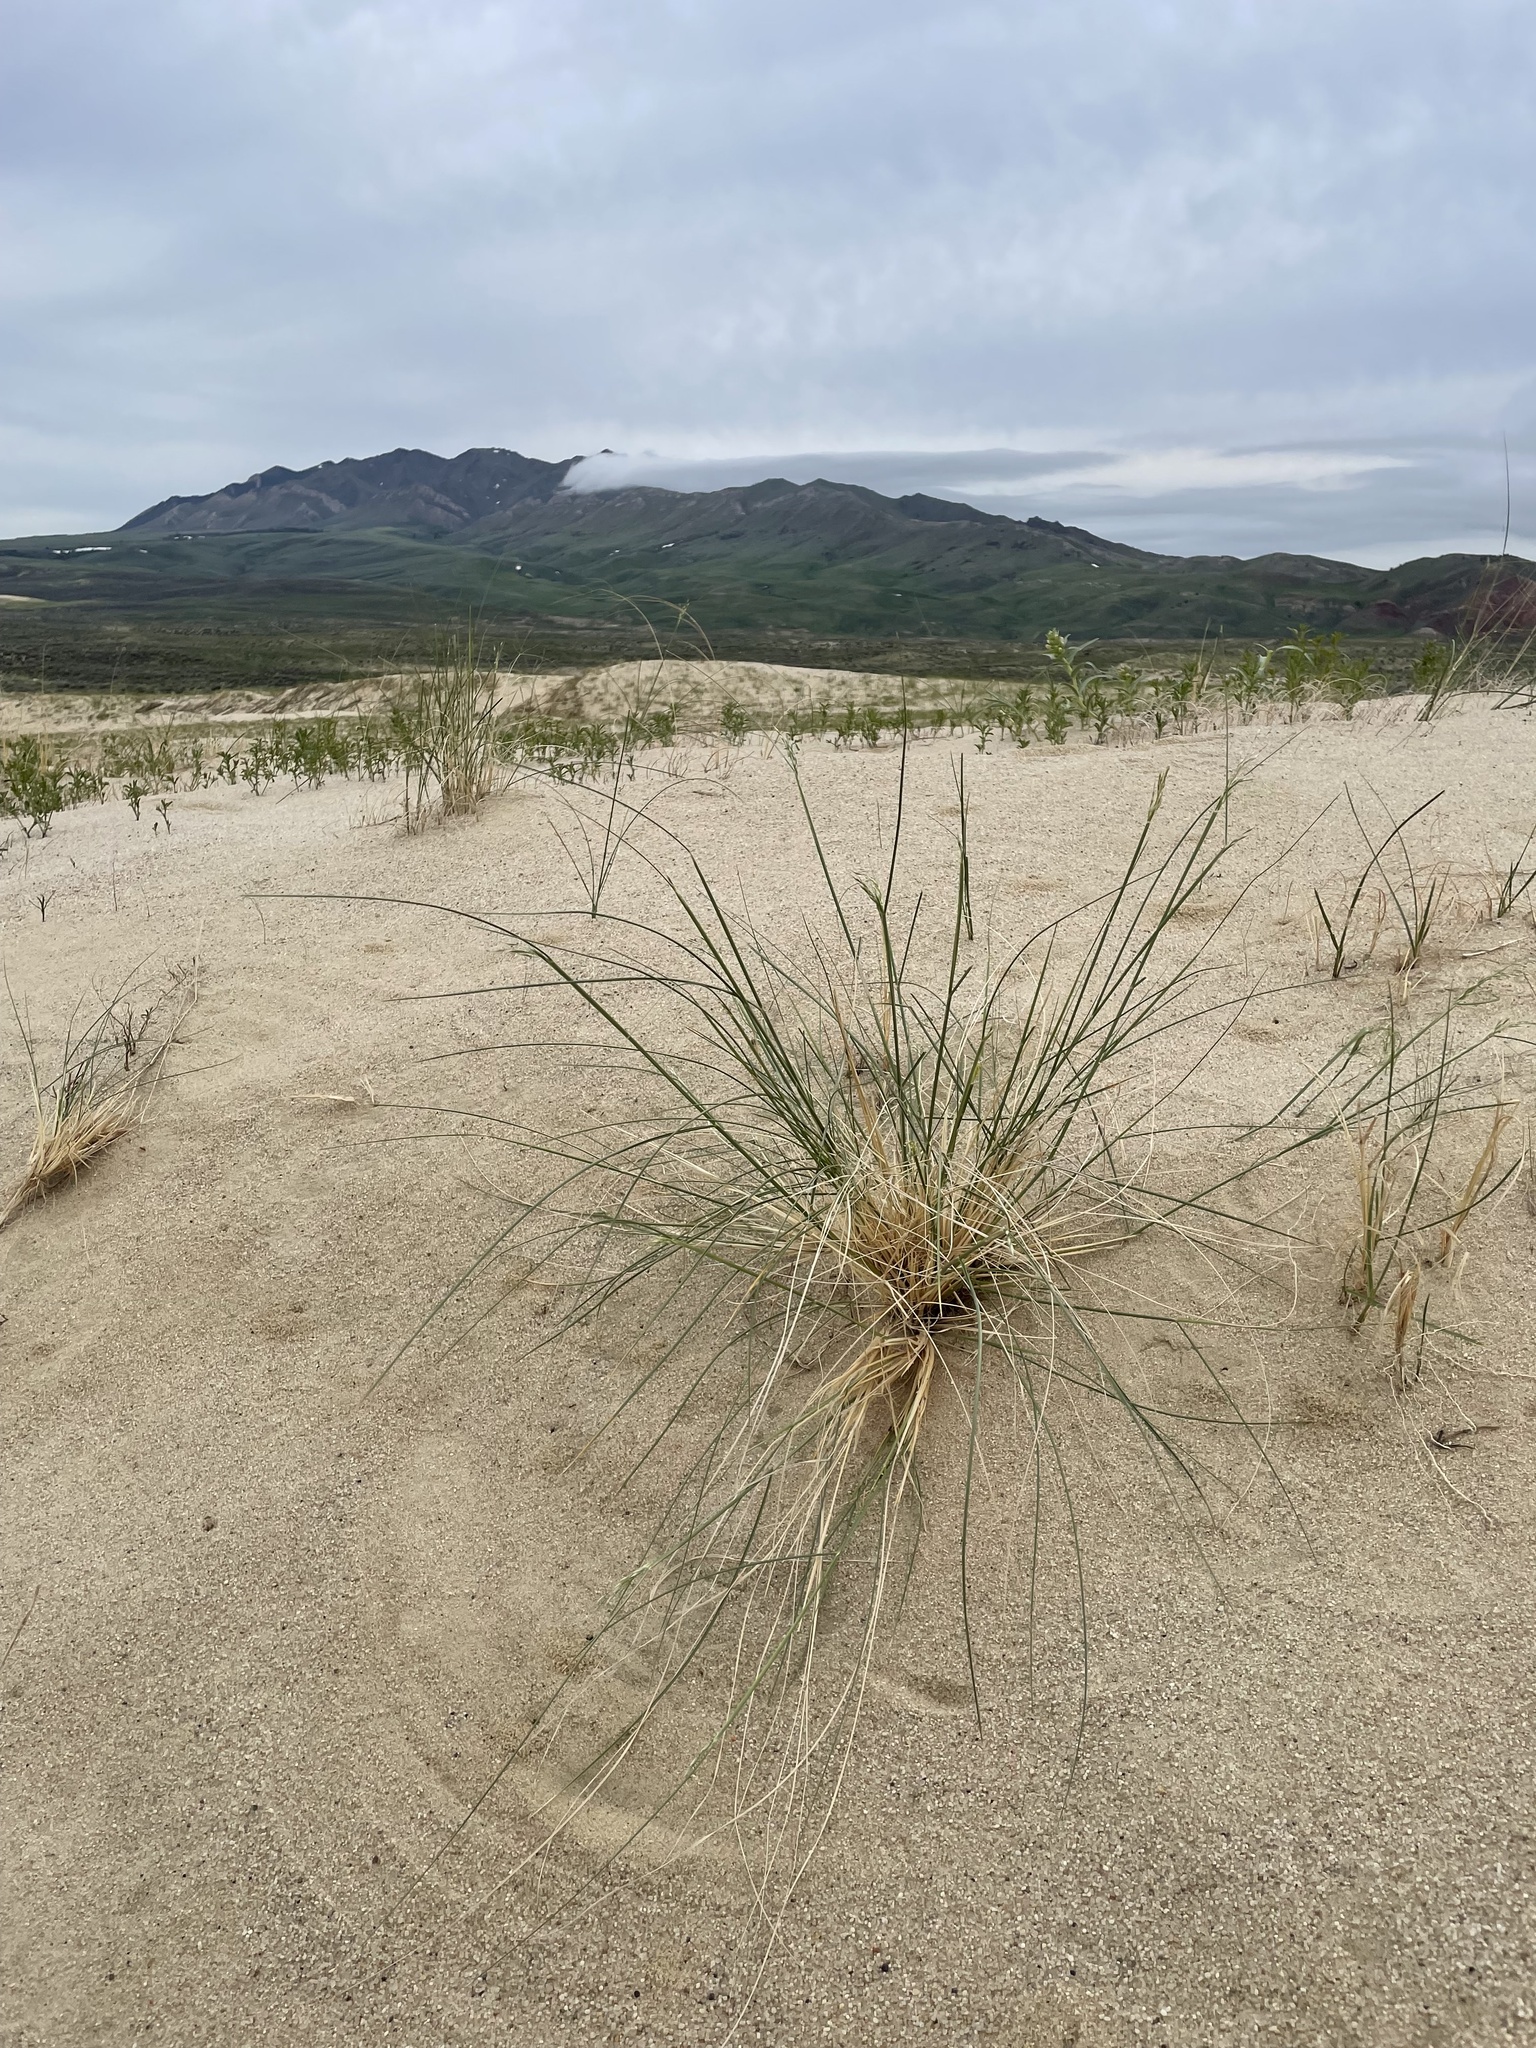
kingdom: Plantae
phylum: Tracheophyta
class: Liliopsida
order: Poales
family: Poaceae
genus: Eriocoma
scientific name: Eriocoma hymenoides
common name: Indian mountain ricegrass
